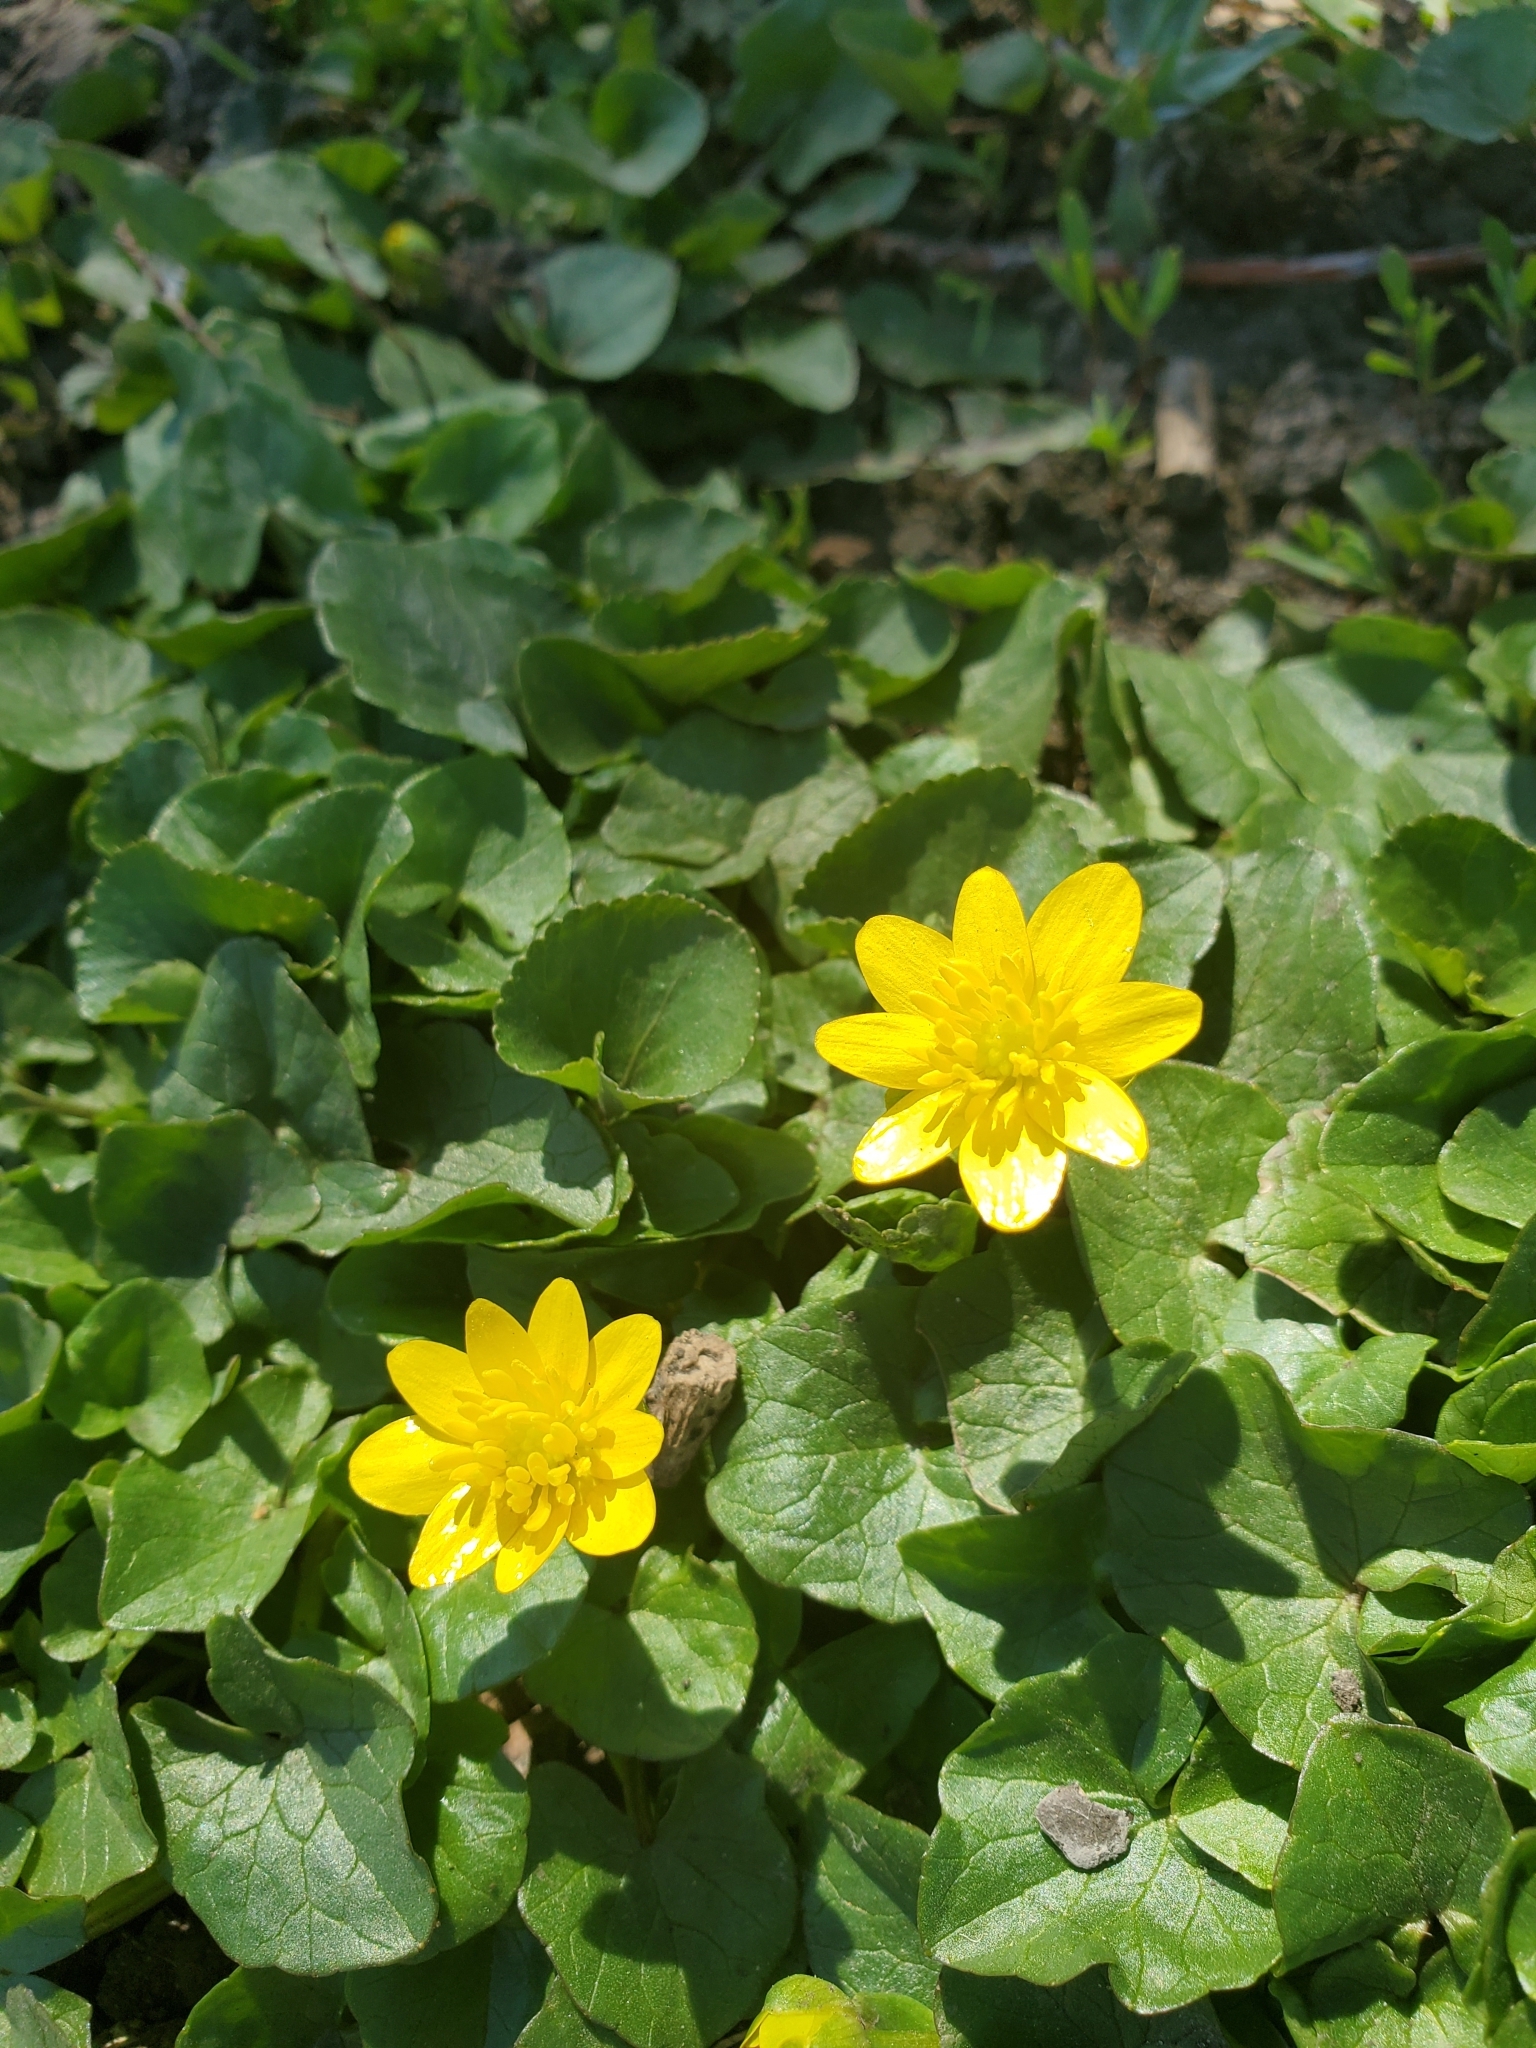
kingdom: Plantae
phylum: Tracheophyta
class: Magnoliopsida
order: Ranunculales
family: Ranunculaceae
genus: Ficaria
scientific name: Ficaria verna
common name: Lesser celandine
